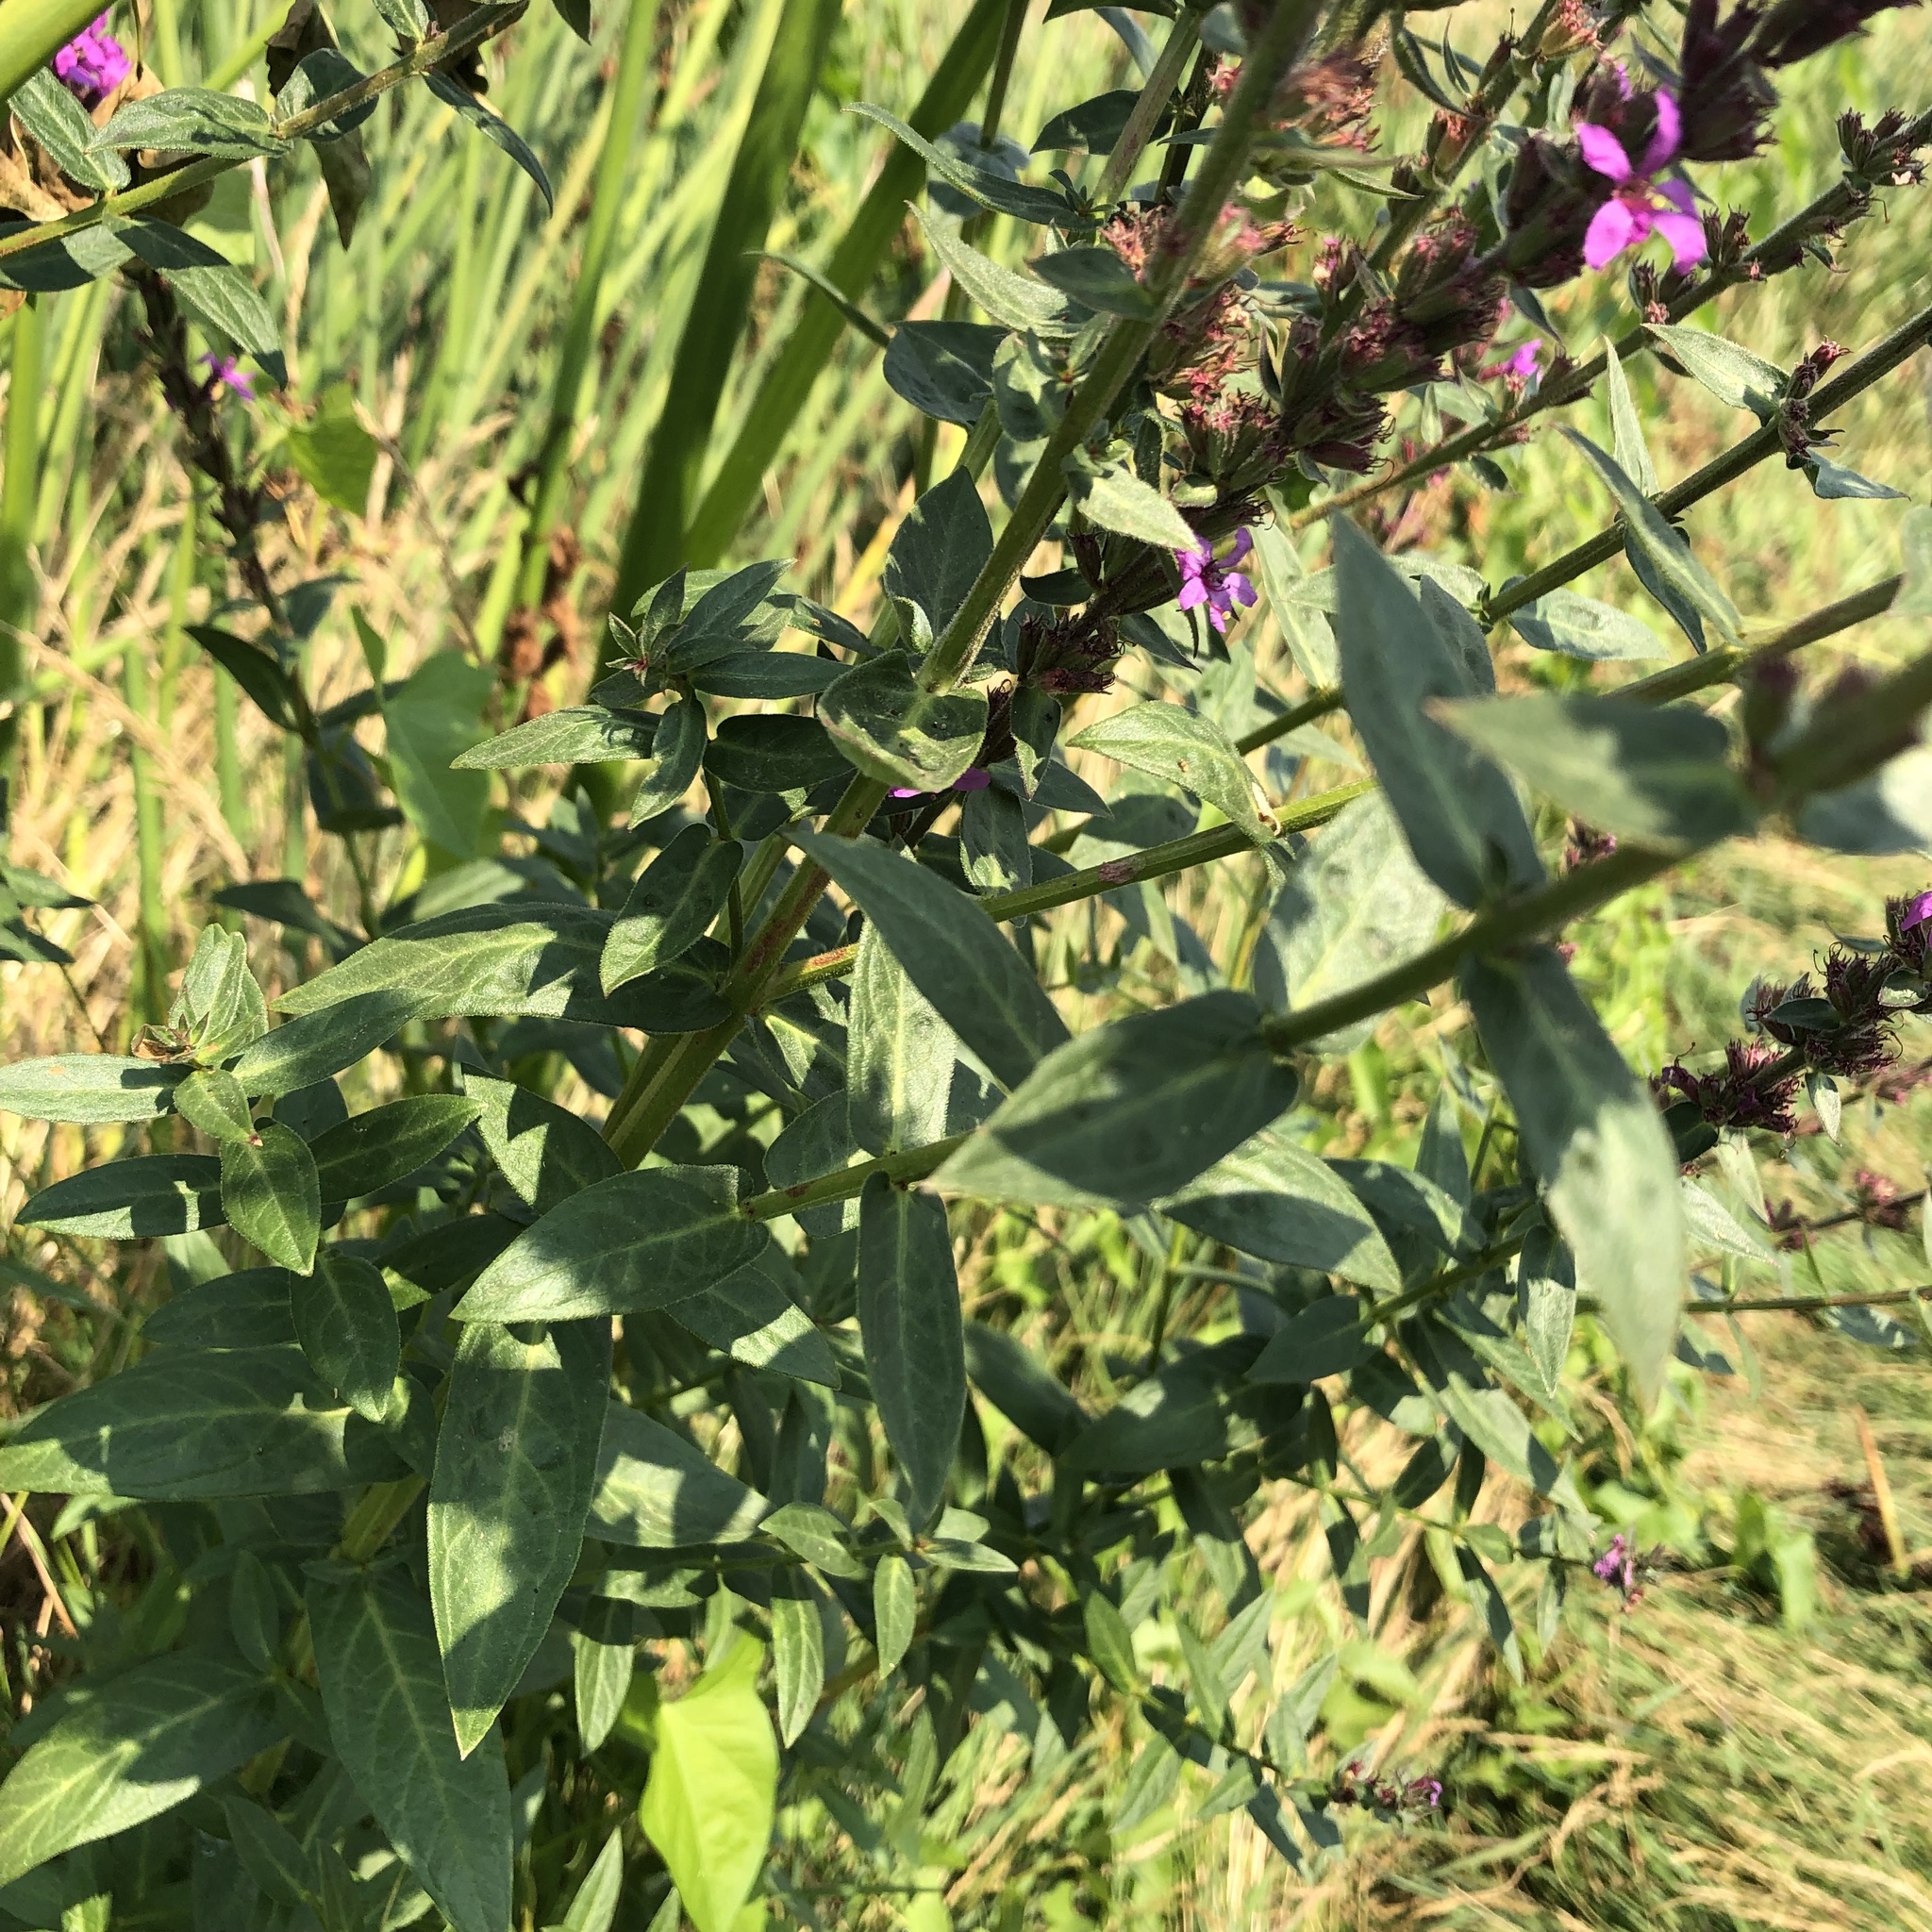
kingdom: Plantae
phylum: Tracheophyta
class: Magnoliopsida
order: Myrtales
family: Lythraceae
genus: Lythrum
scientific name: Lythrum salicaria
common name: Purple loosestrife
